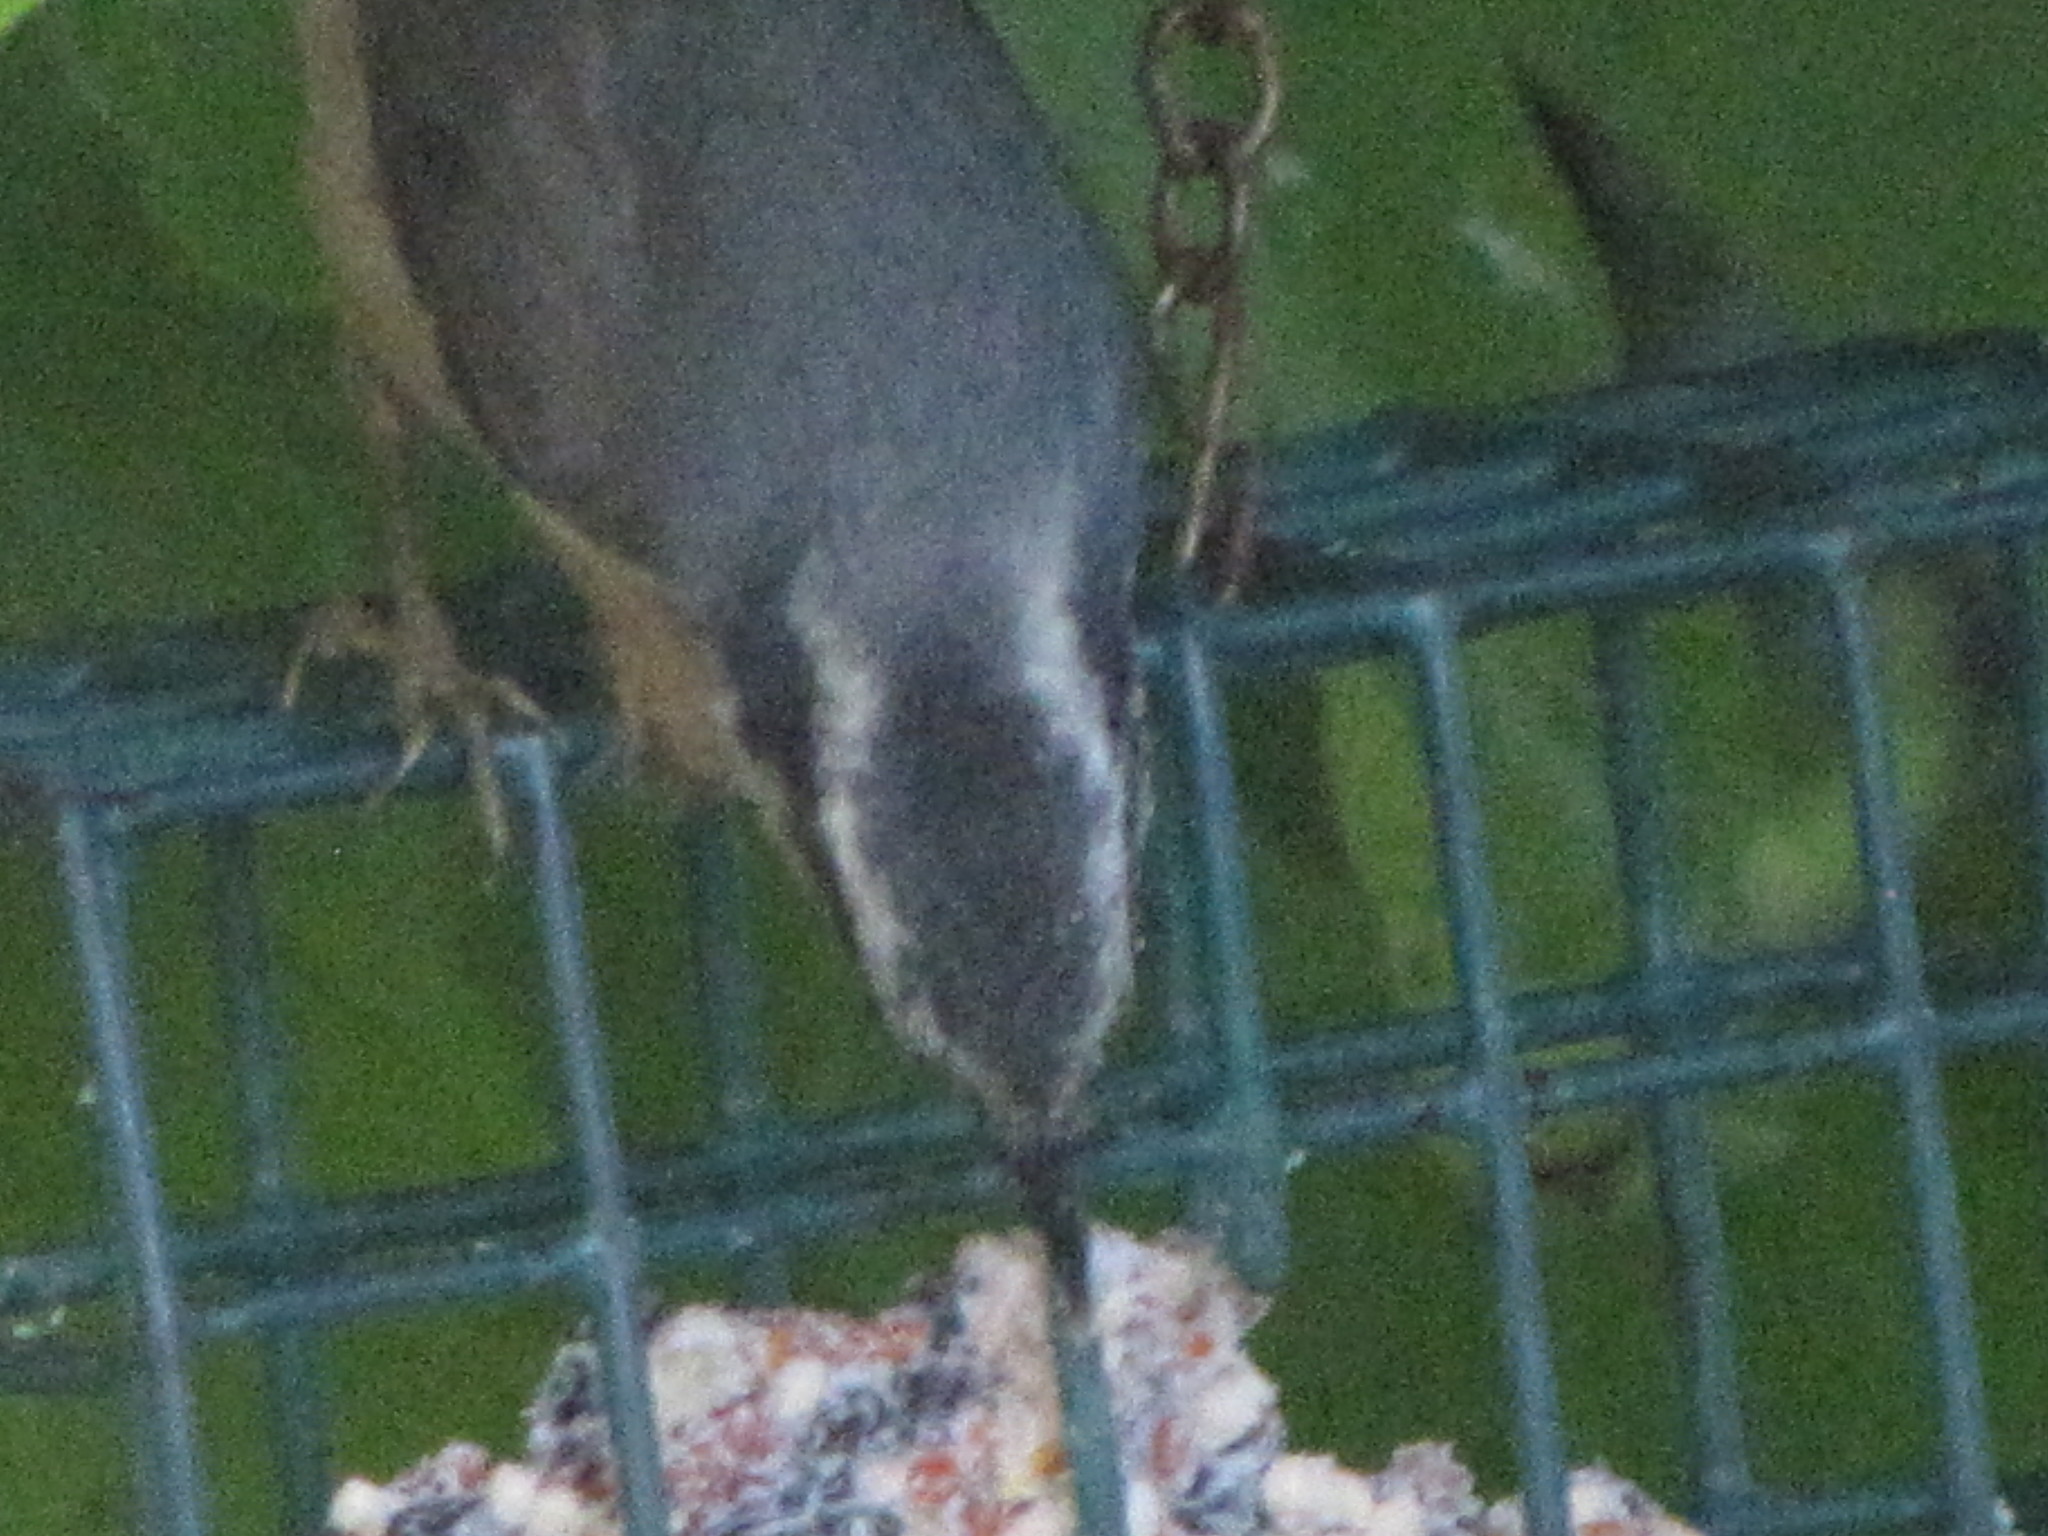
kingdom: Animalia
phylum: Chordata
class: Aves
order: Passeriformes
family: Sittidae
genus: Sitta
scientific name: Sitta canadensis
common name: Red-breasted nuthatch
